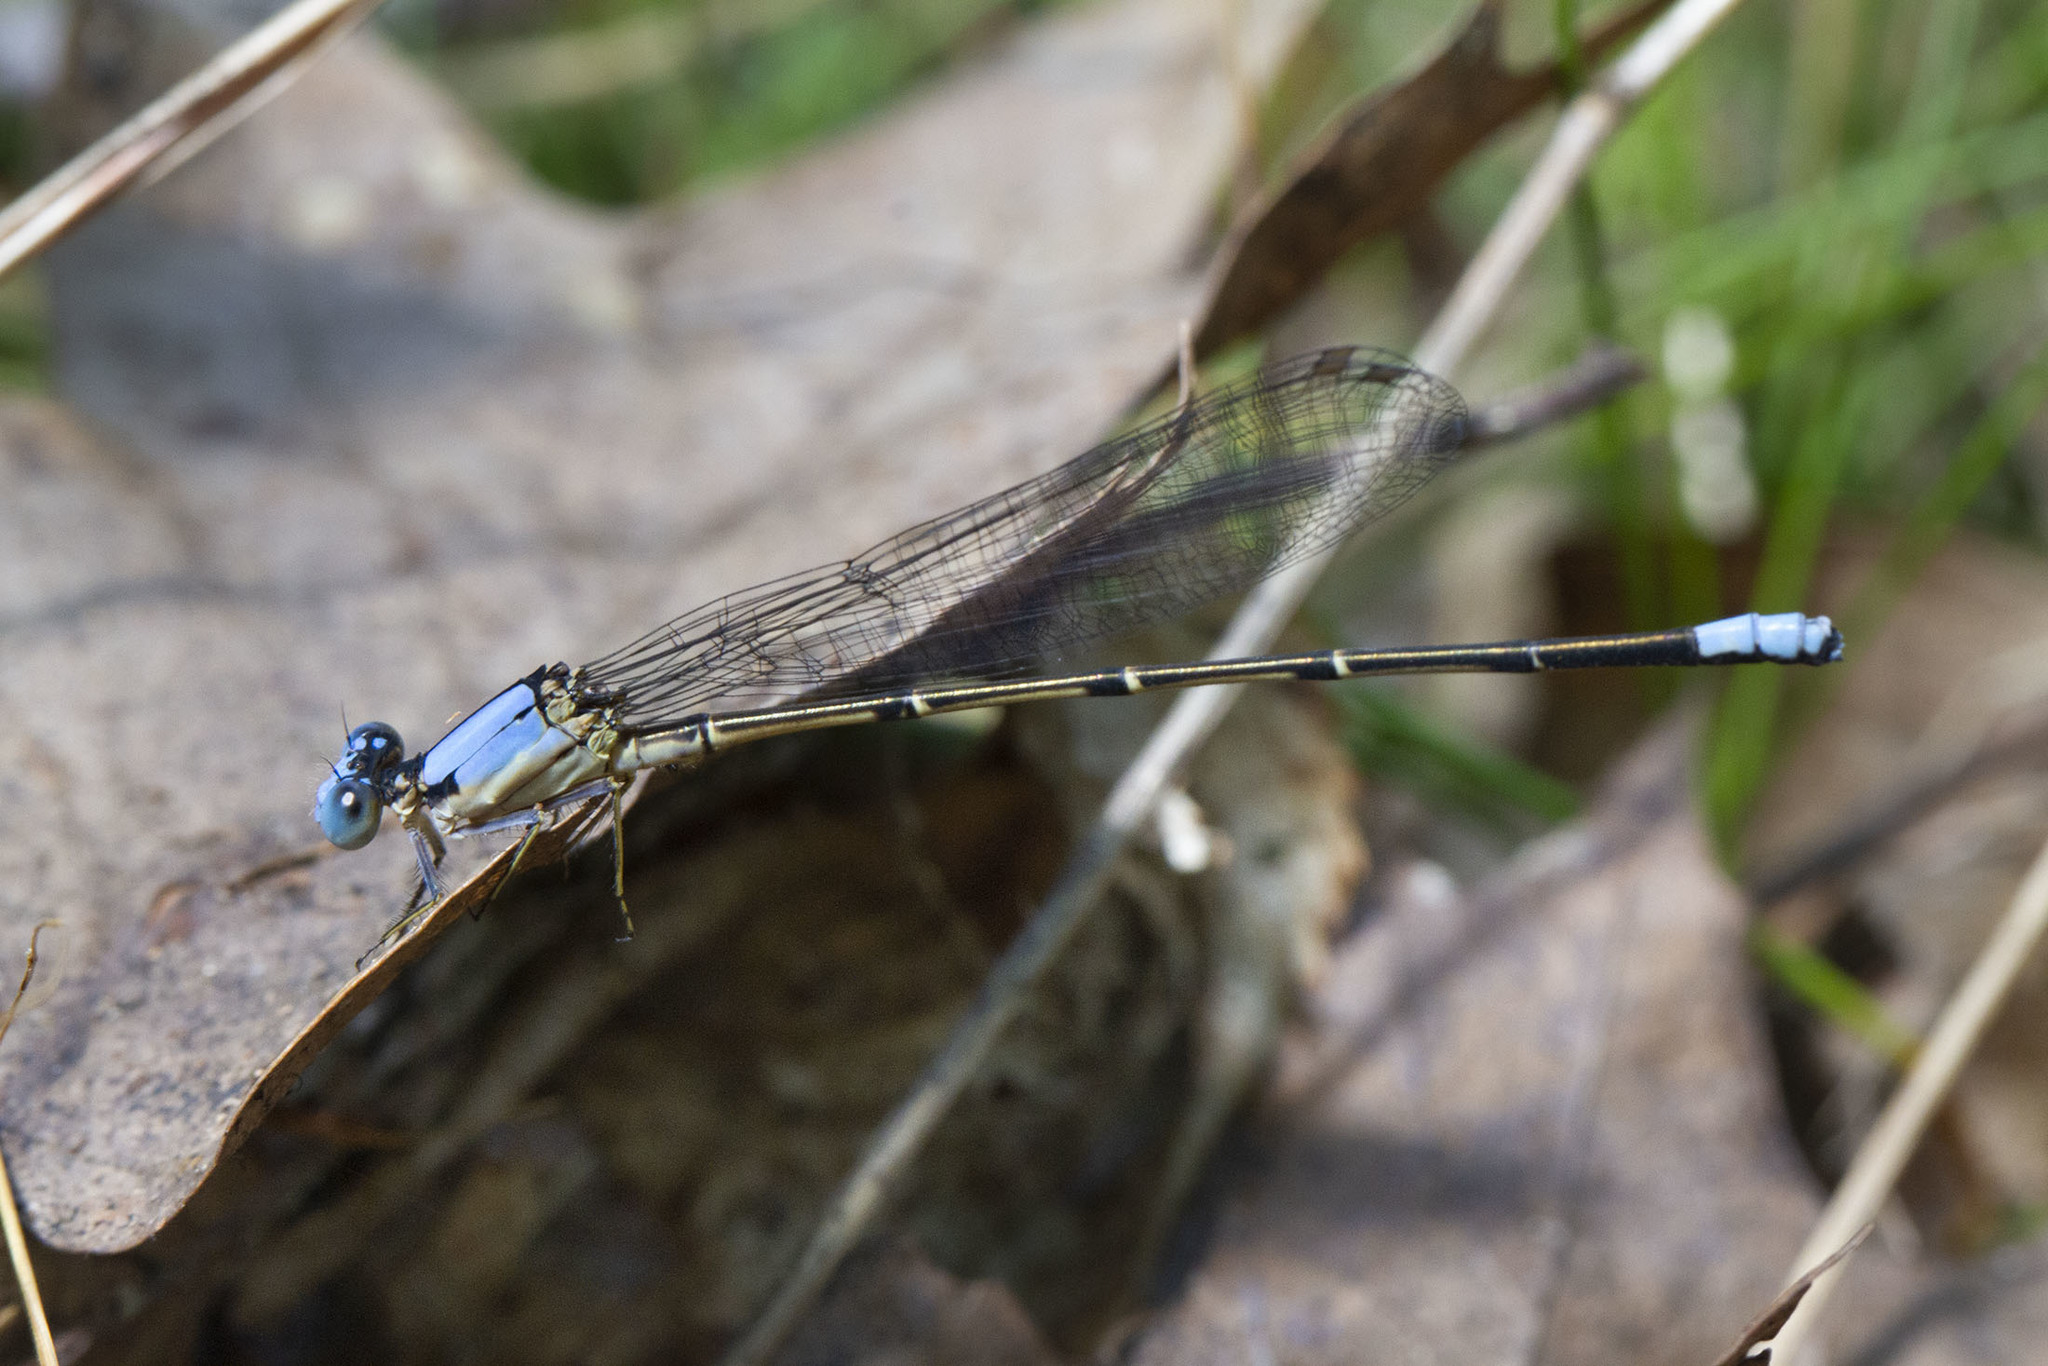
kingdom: Animalia
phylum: Arthropoda
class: Insecta
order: Odonata
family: Coenagrionidae
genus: Argia
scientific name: Argia apicalis
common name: Blue-fronted dancer
